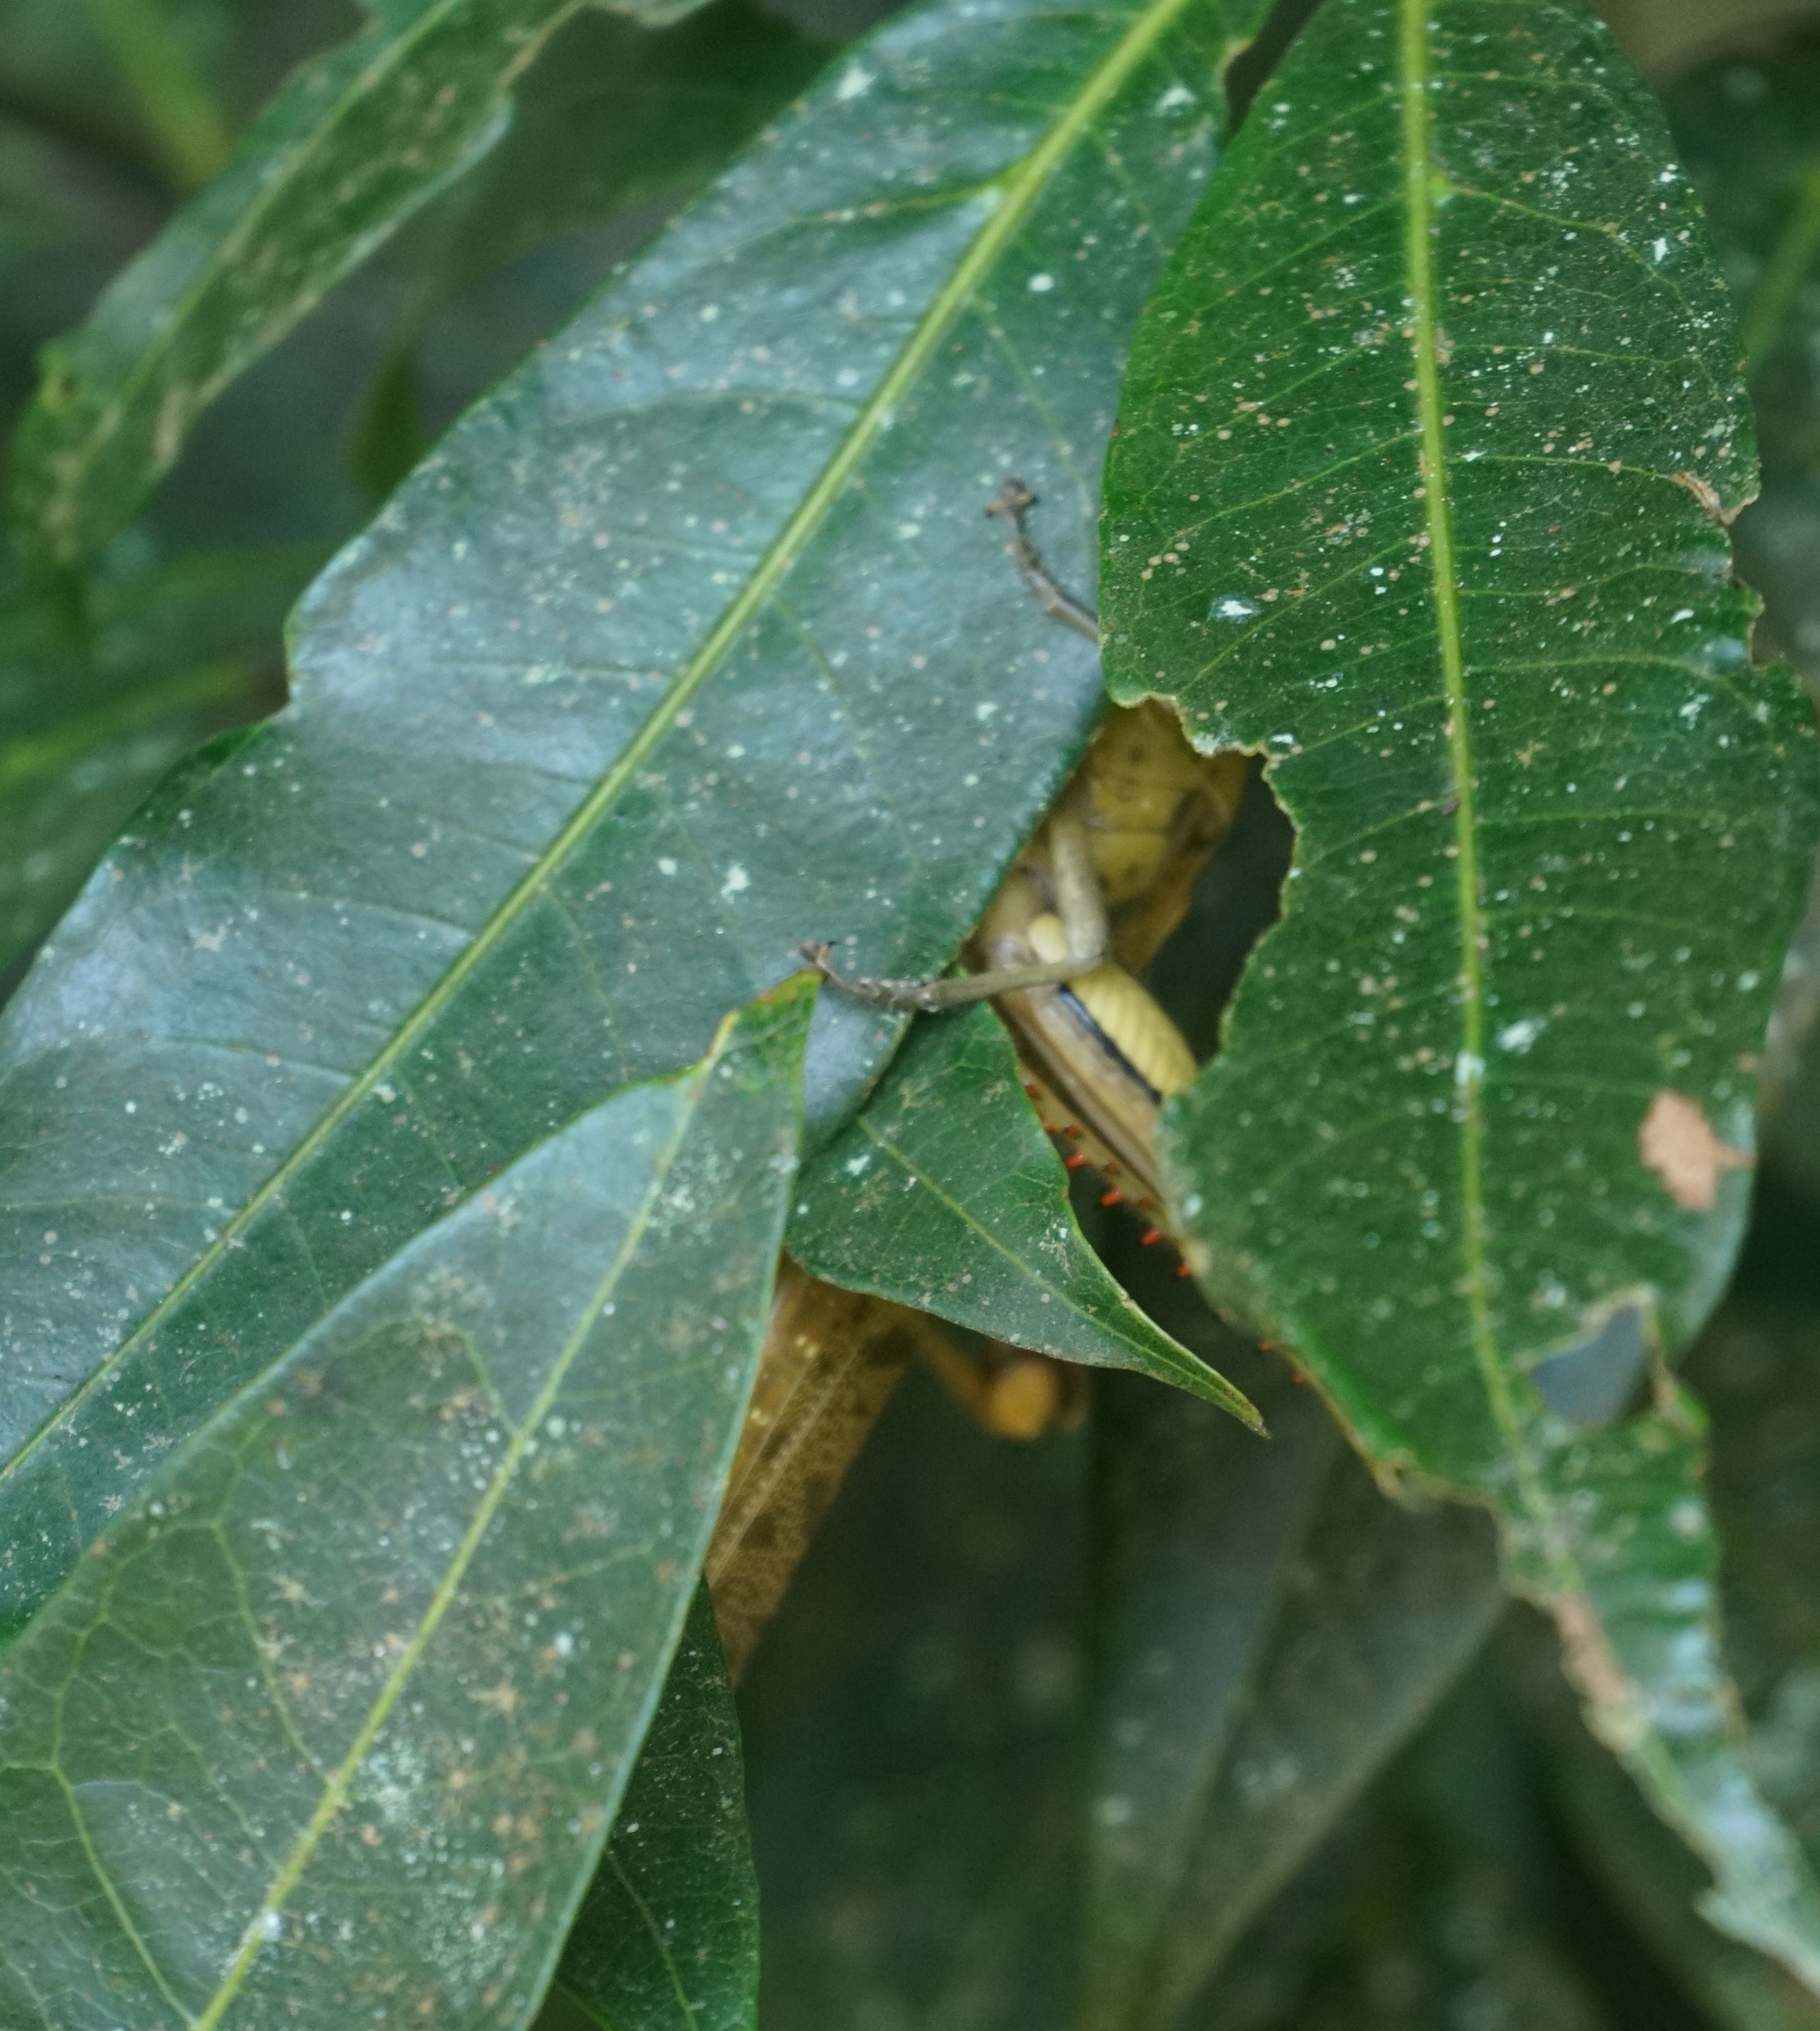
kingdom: Animalia
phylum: Arthropoda
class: Insecta
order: Orthoptera
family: Acrididae
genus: Valanga
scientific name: Valanga irregularis
